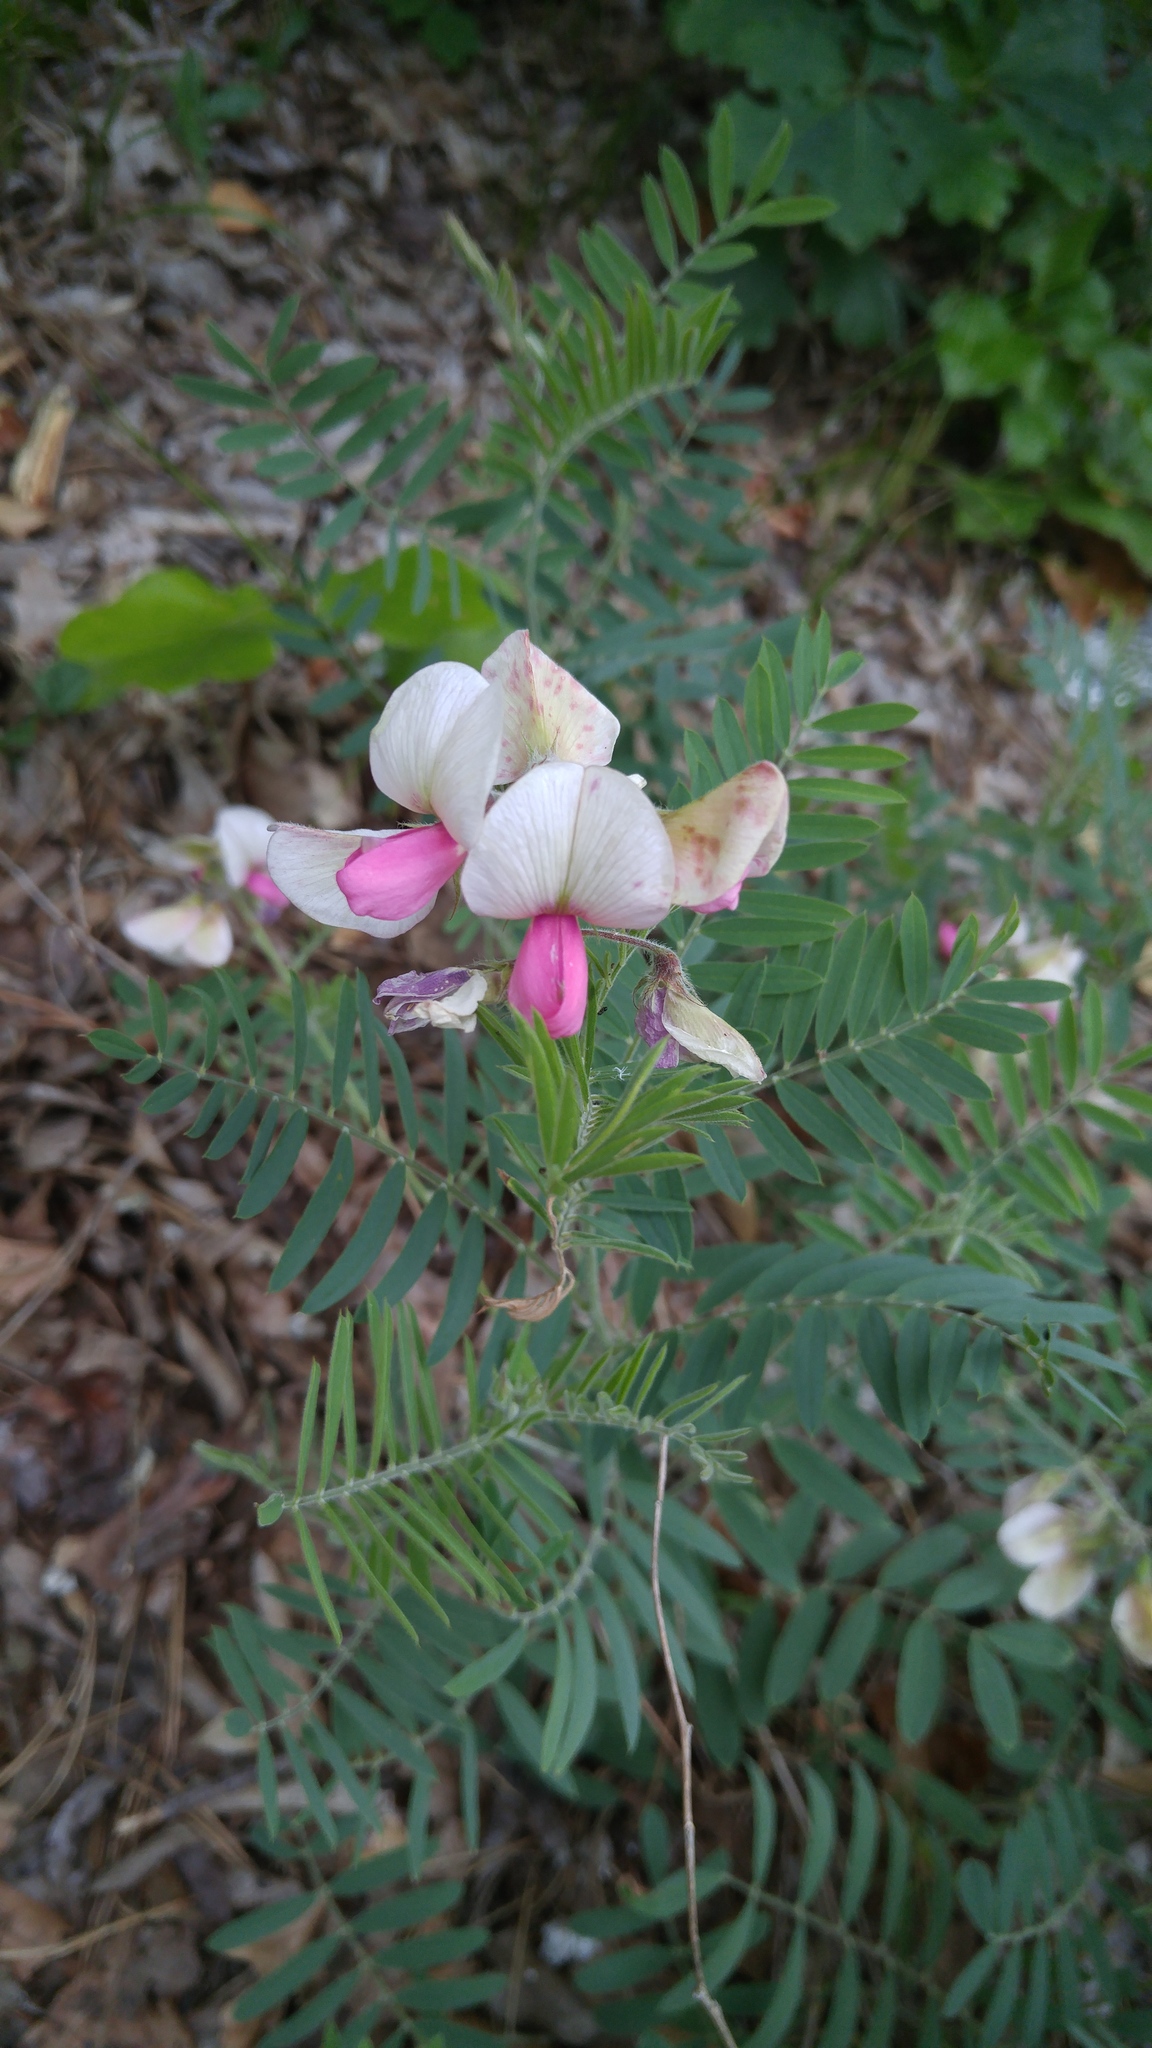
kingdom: Plantae
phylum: Tracheophyta
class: Magnoliopsida
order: Fabales
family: Fabaceae
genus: Tephrosia
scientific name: Tephrosia virginiana
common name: Rabbit-pea
